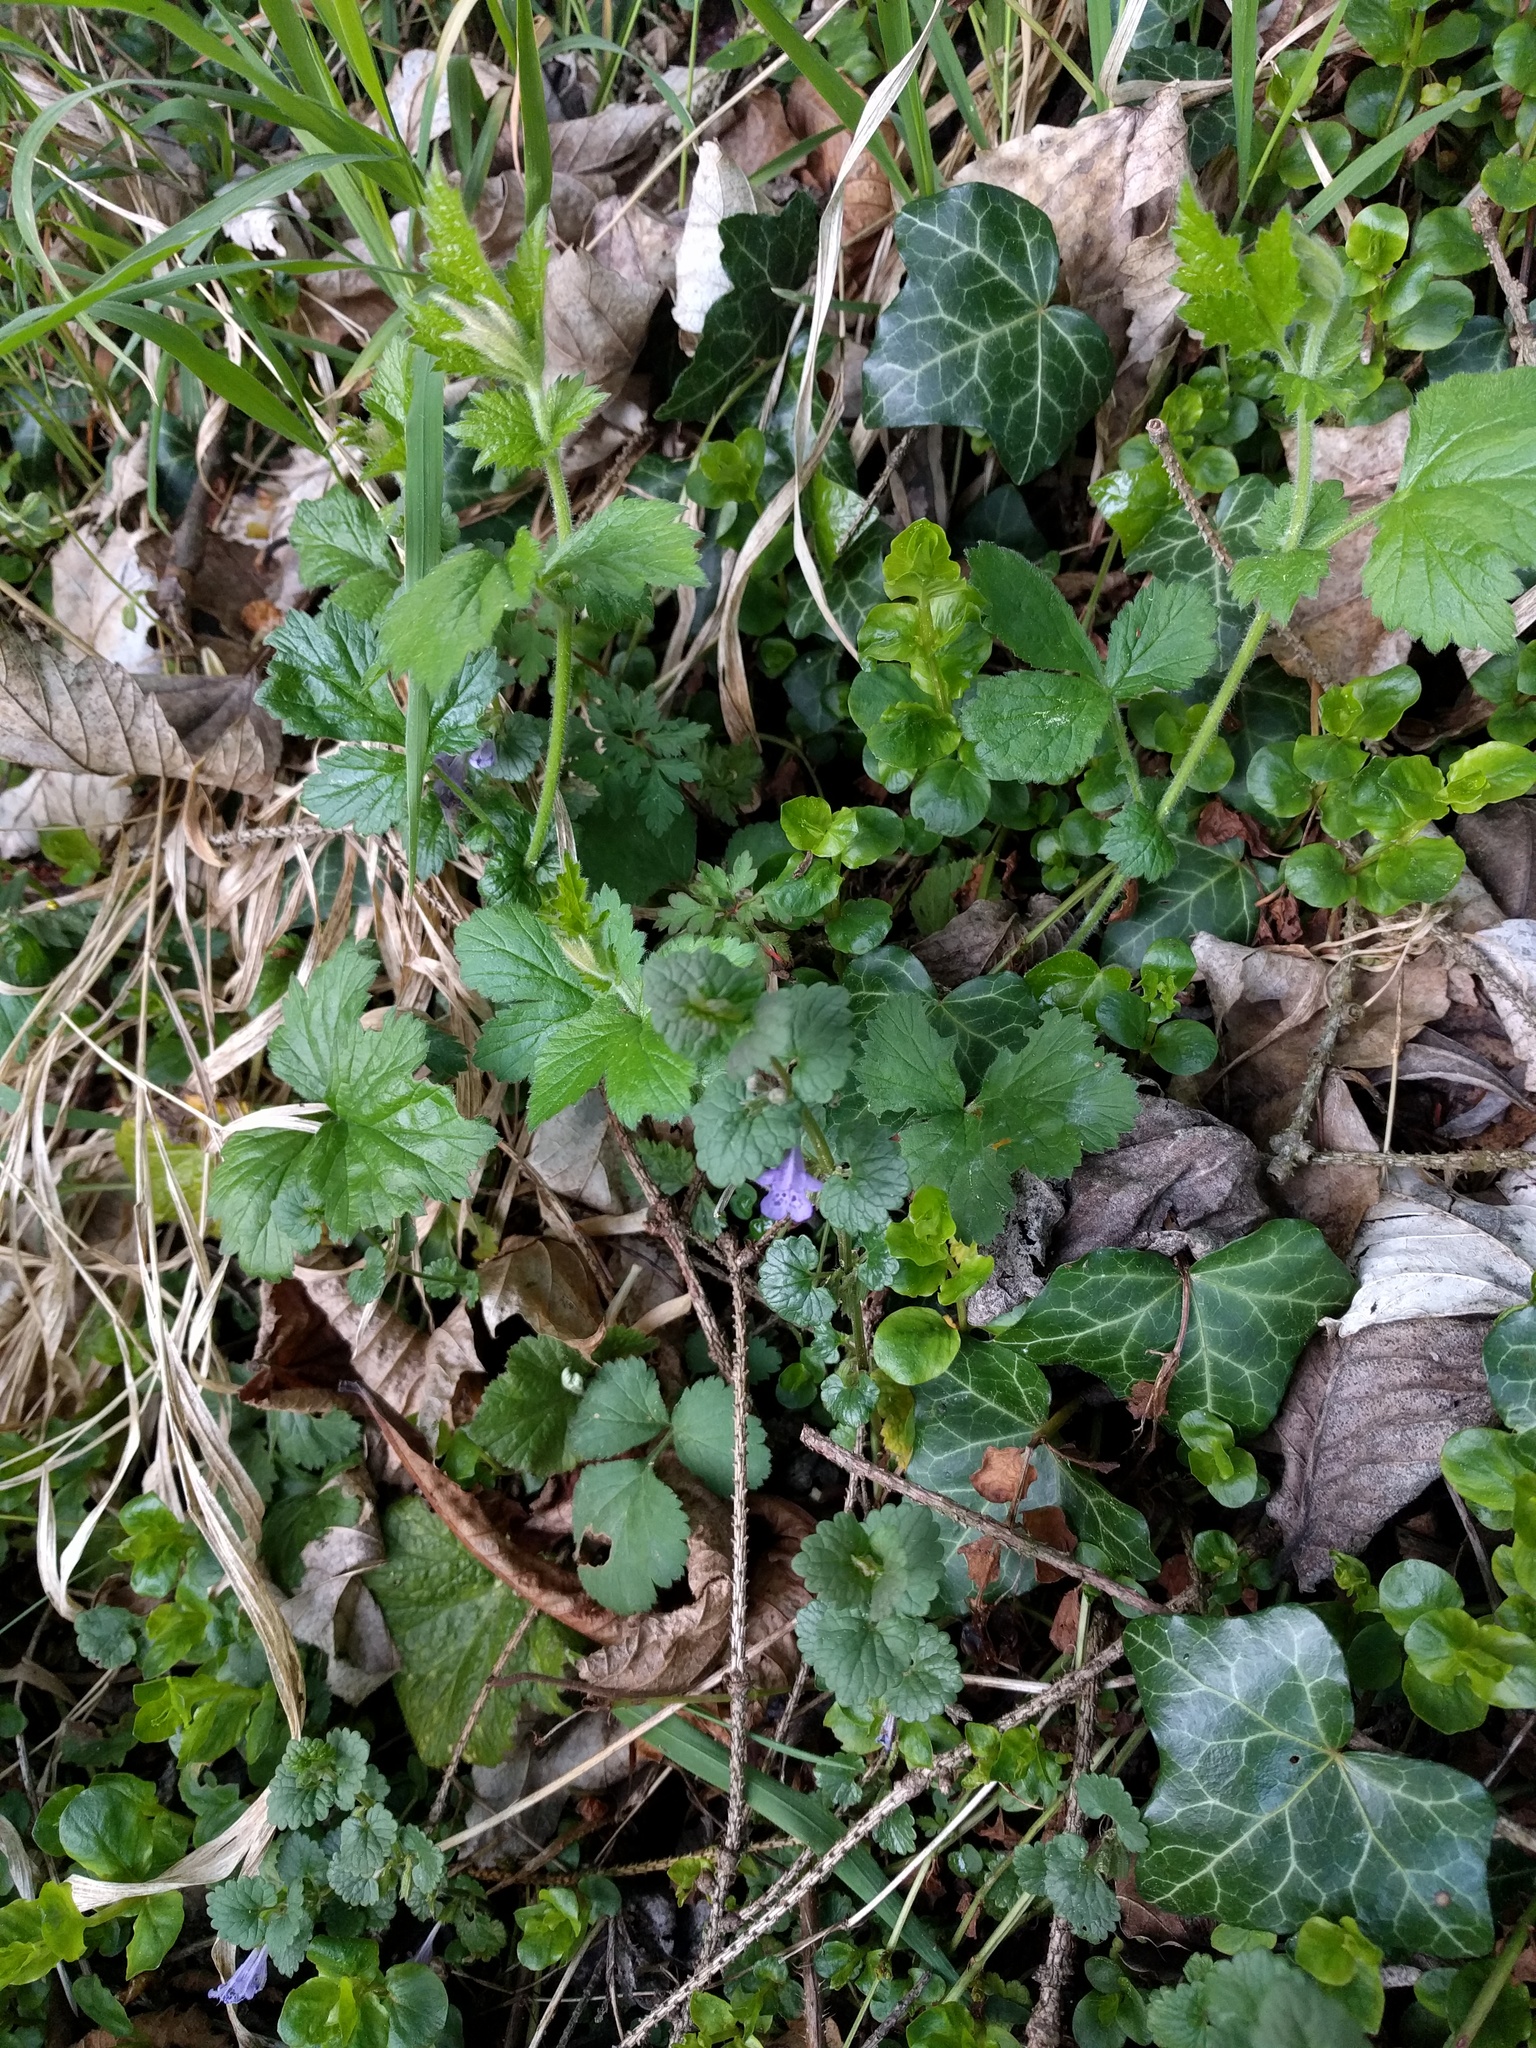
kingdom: Plantae
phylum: Tracheophyta
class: Magnoliopsida
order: Lamiales
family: Lamiaceae
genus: Glechoma
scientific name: Glechoma hederacea
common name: Ground ivy
